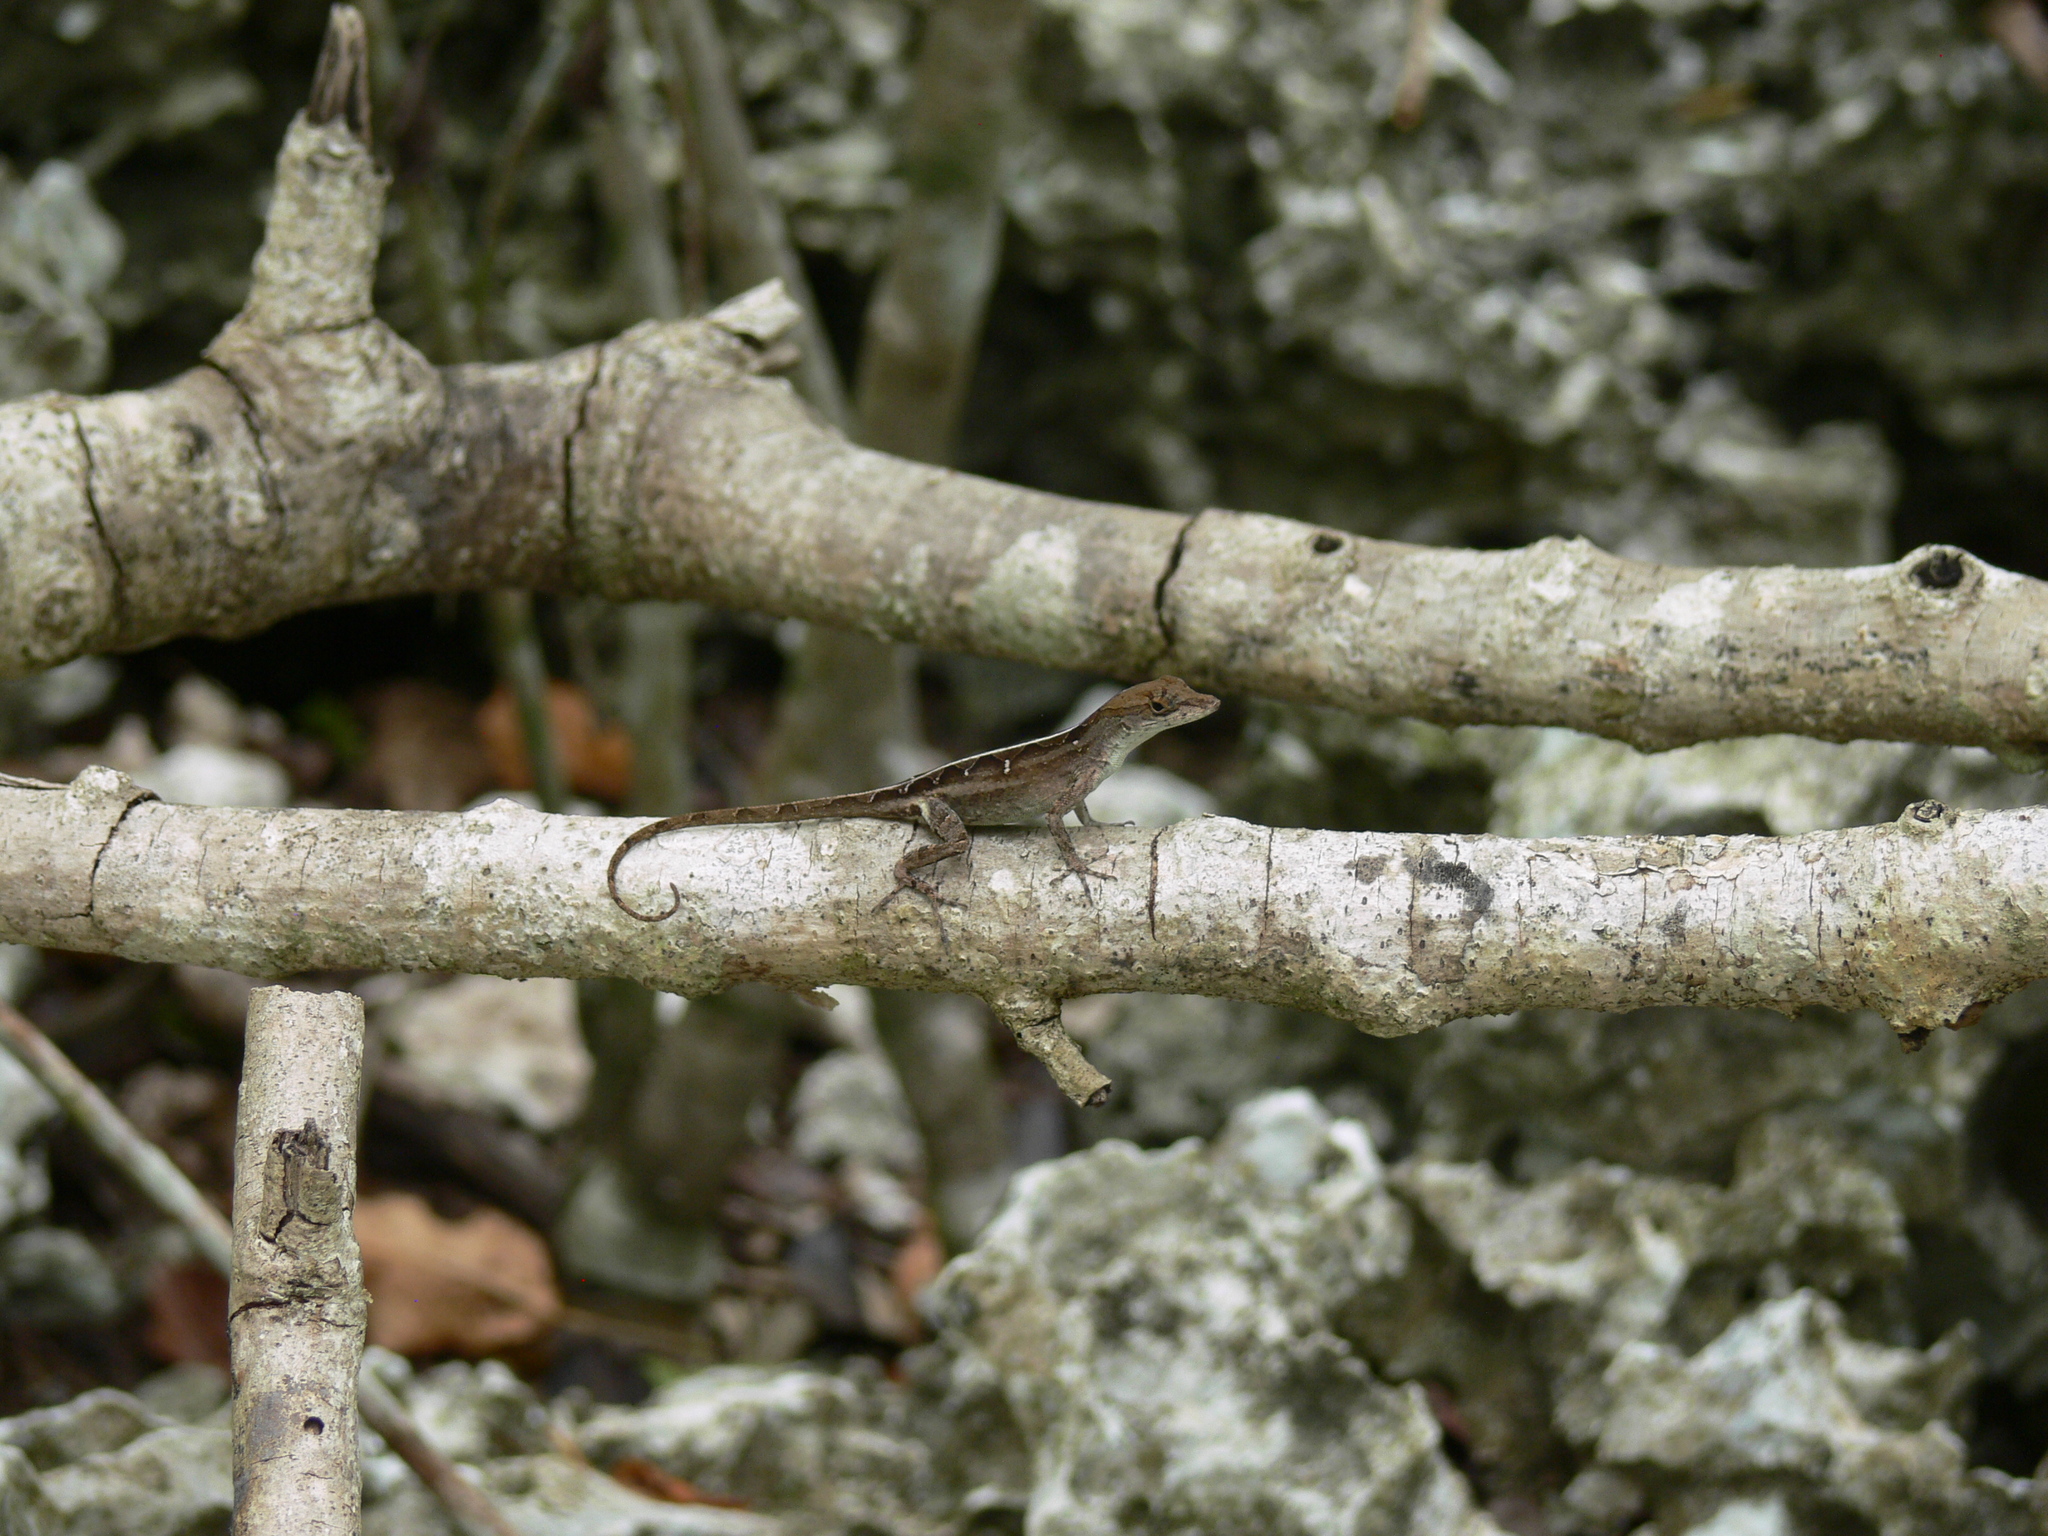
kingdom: Animalia
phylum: Chordata
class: Squamata
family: Dactyloidae
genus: Anolis
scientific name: Anolis sagrei
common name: Brown anole
